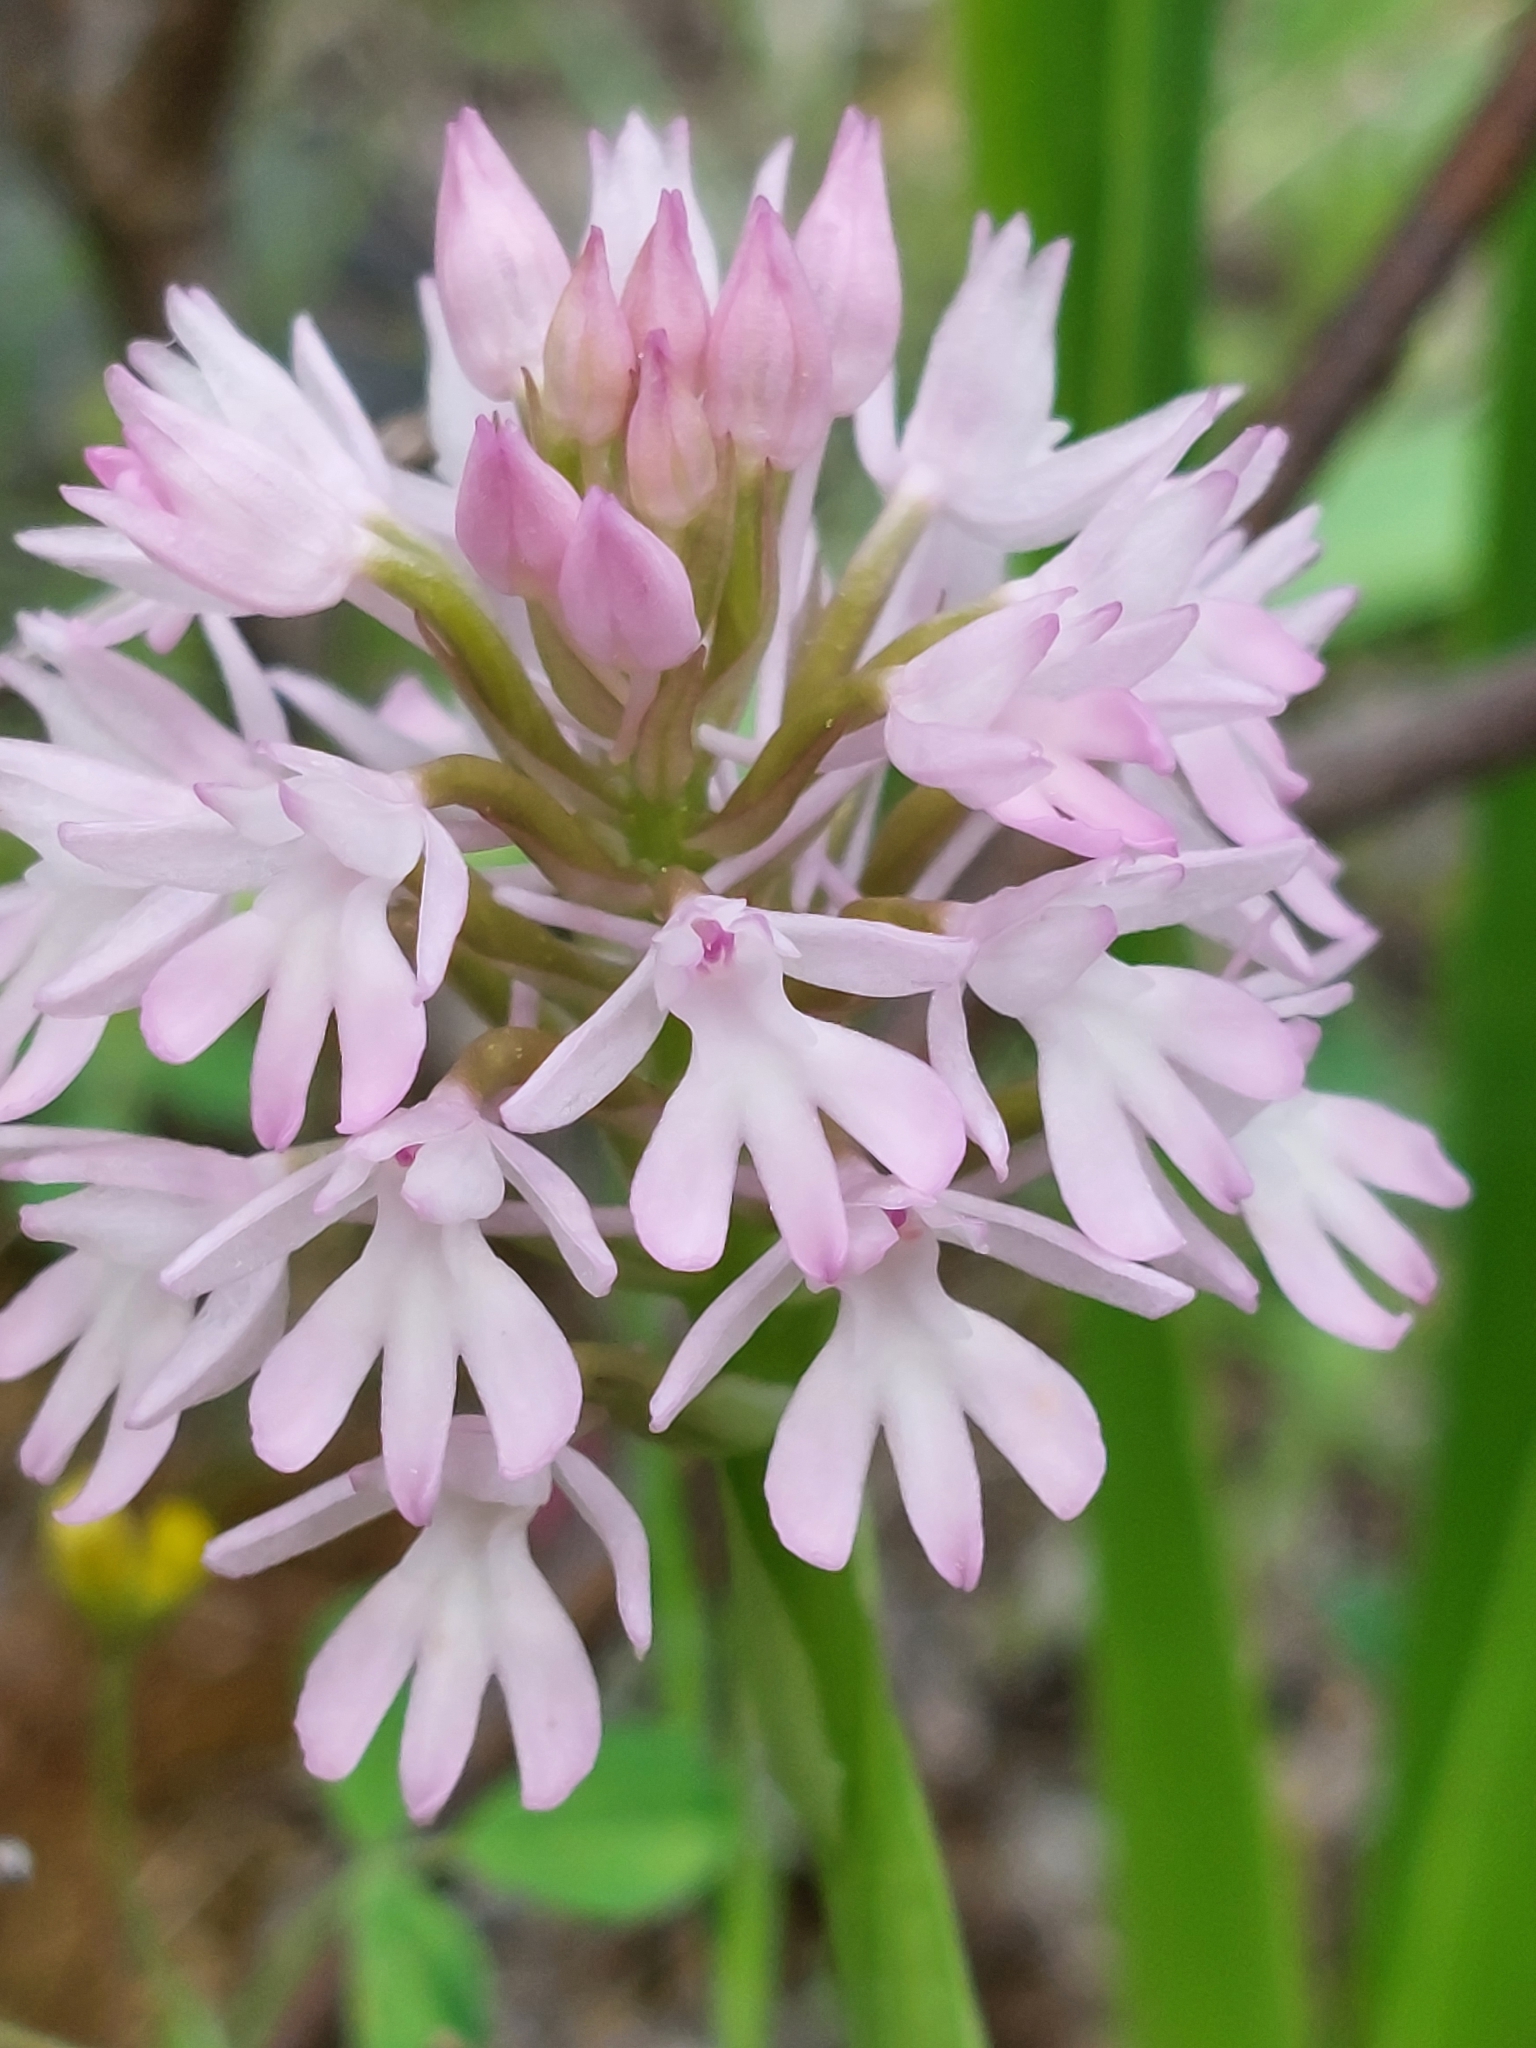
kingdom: Plantae
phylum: Tracheophyta
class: Liliopsida
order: Asparagales
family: Orchidaceae
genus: Anacamptis
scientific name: Anacamptis pyramidalis
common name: Pyramidal orchid
